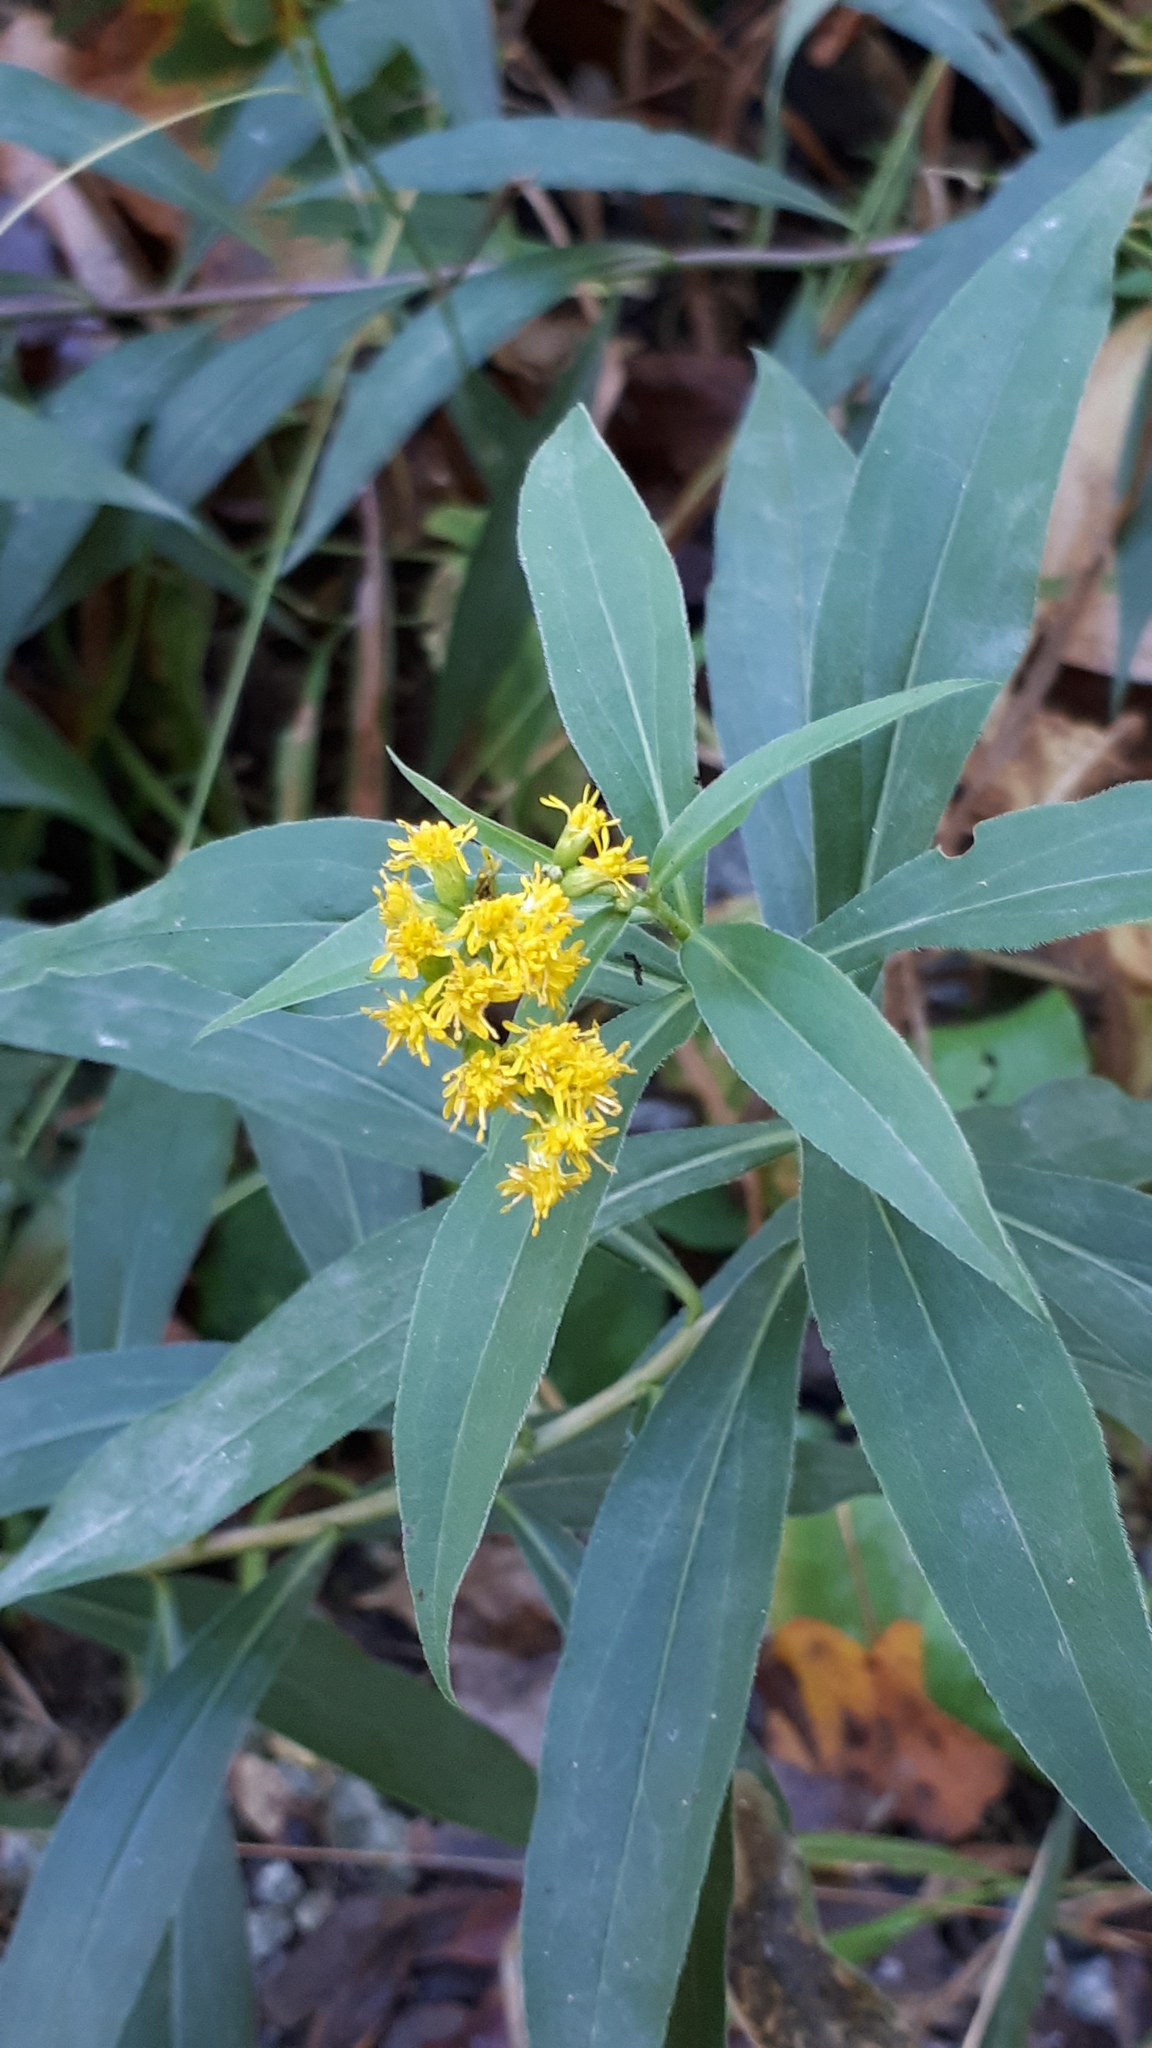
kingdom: Plantae
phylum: Tracheophyta
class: Magnoliopsida
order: Asterales
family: Asteraceae
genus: Solidago
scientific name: Solidago gigantea
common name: Giant goldenrod
